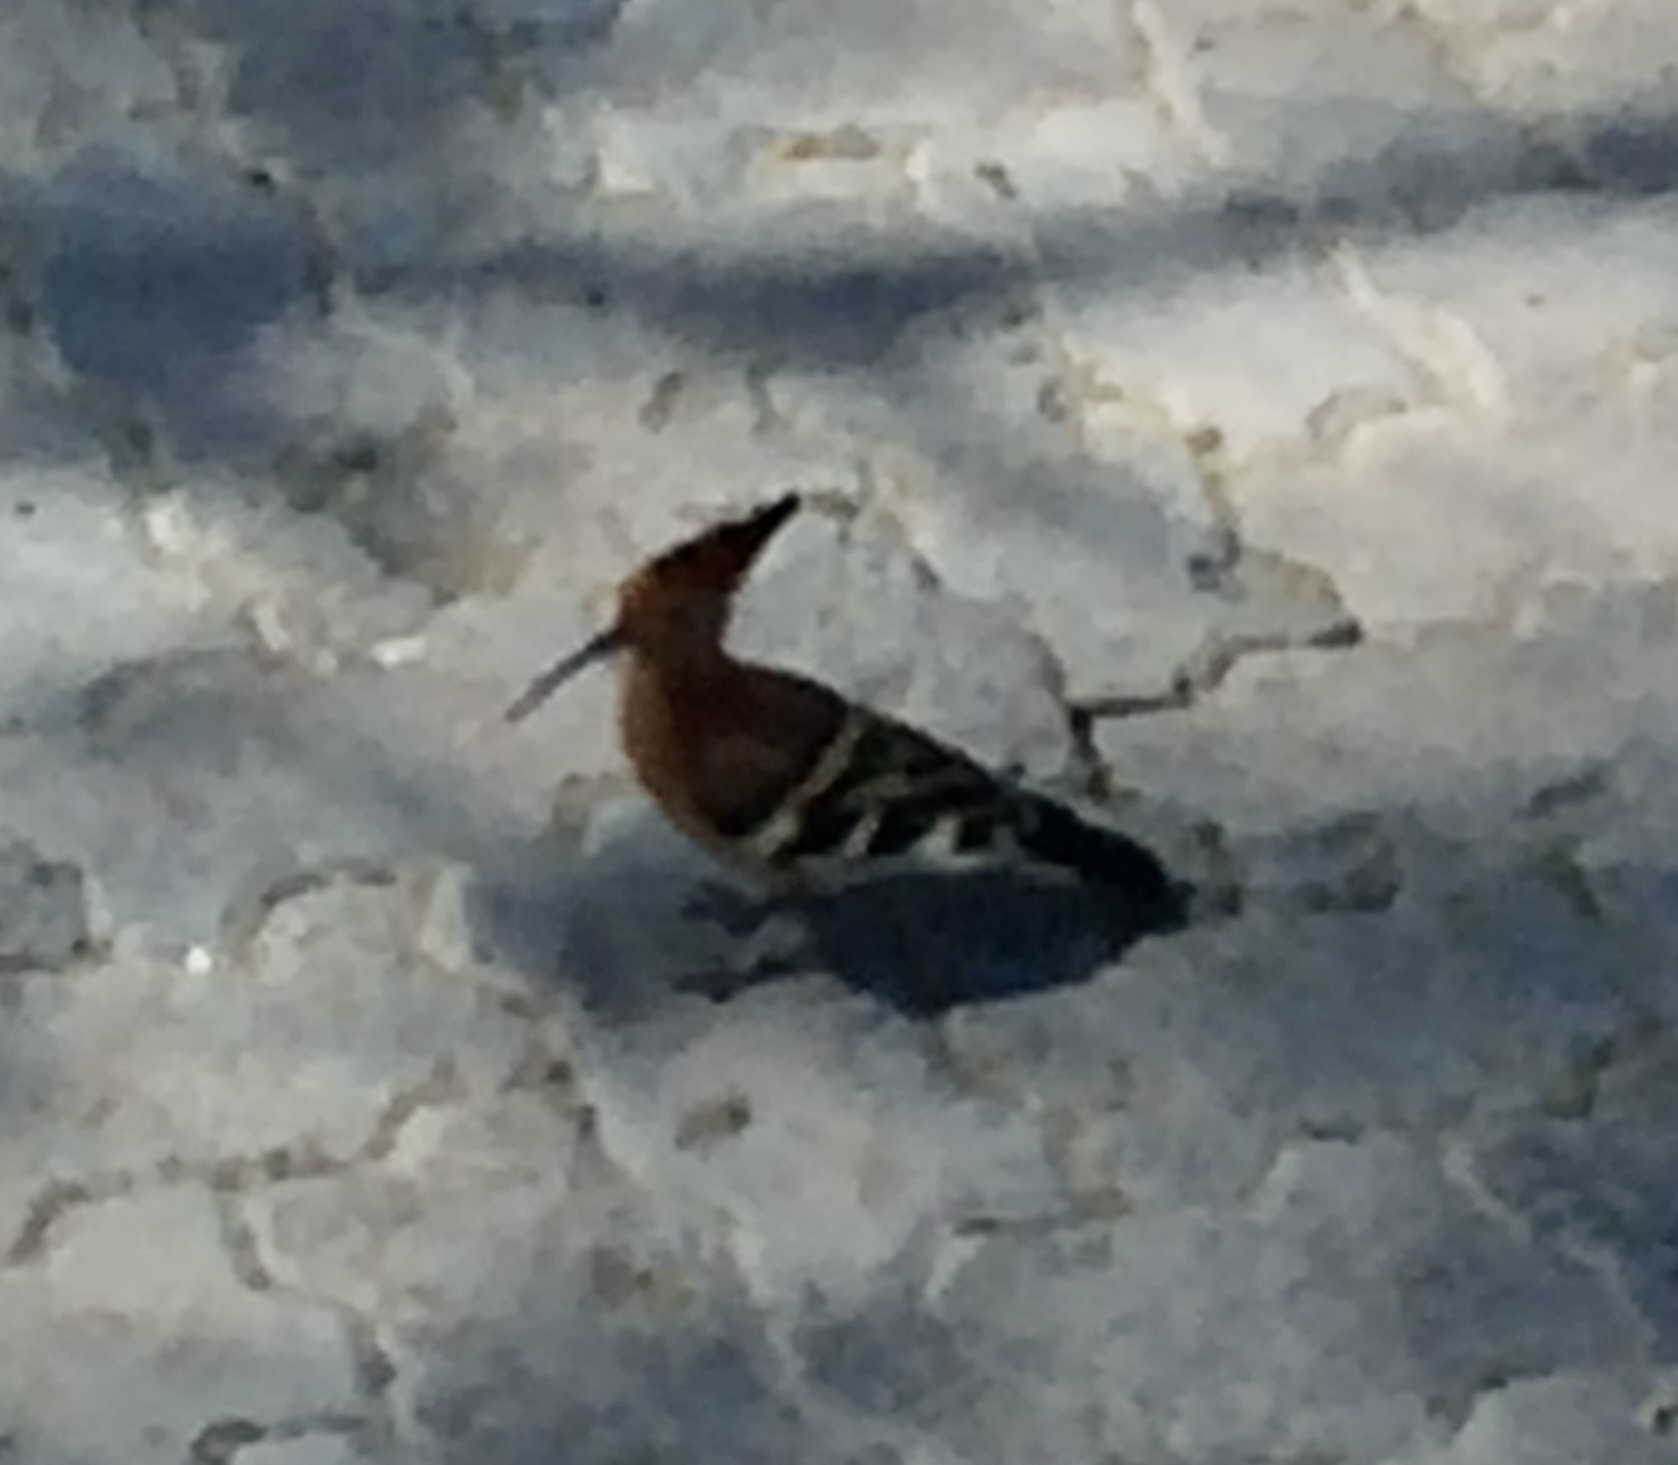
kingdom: Animalia
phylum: Chordata
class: Aves
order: Bucerotiformes
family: Upupidae
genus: Upupa
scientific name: Upupa africana
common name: African hoopoe
